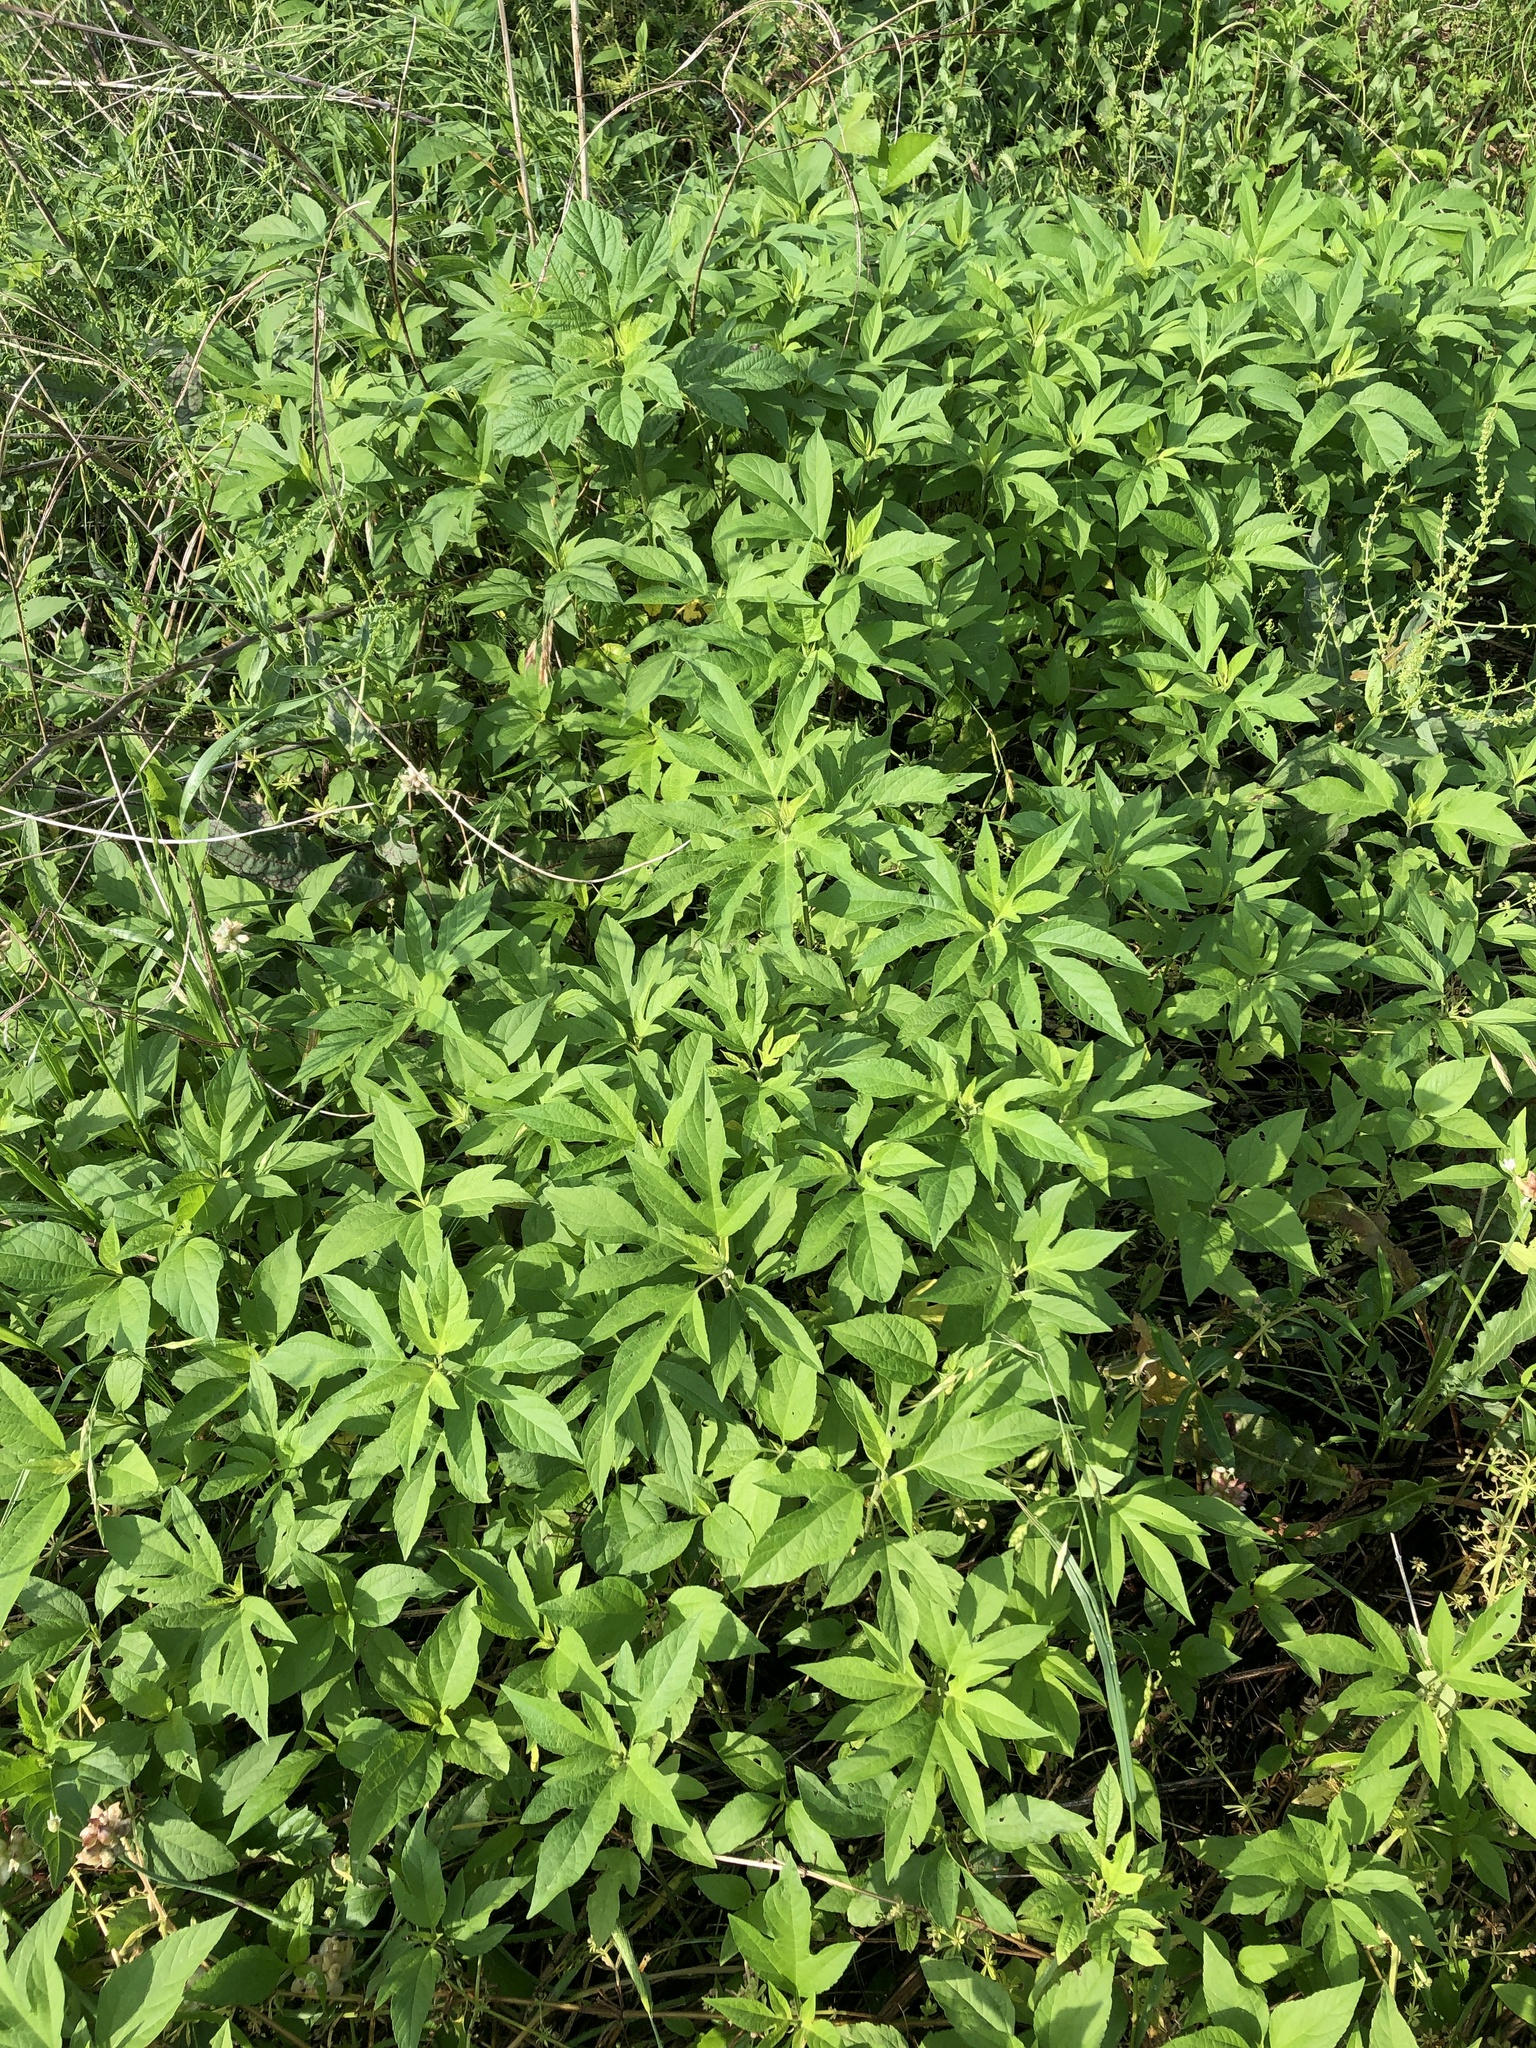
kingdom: Plantae
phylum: Tracheophyta
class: Magnoliopsida
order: Asterales
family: Asteraceae
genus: Ambrosia
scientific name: Ambrosia trifida
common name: Giant ragweed
